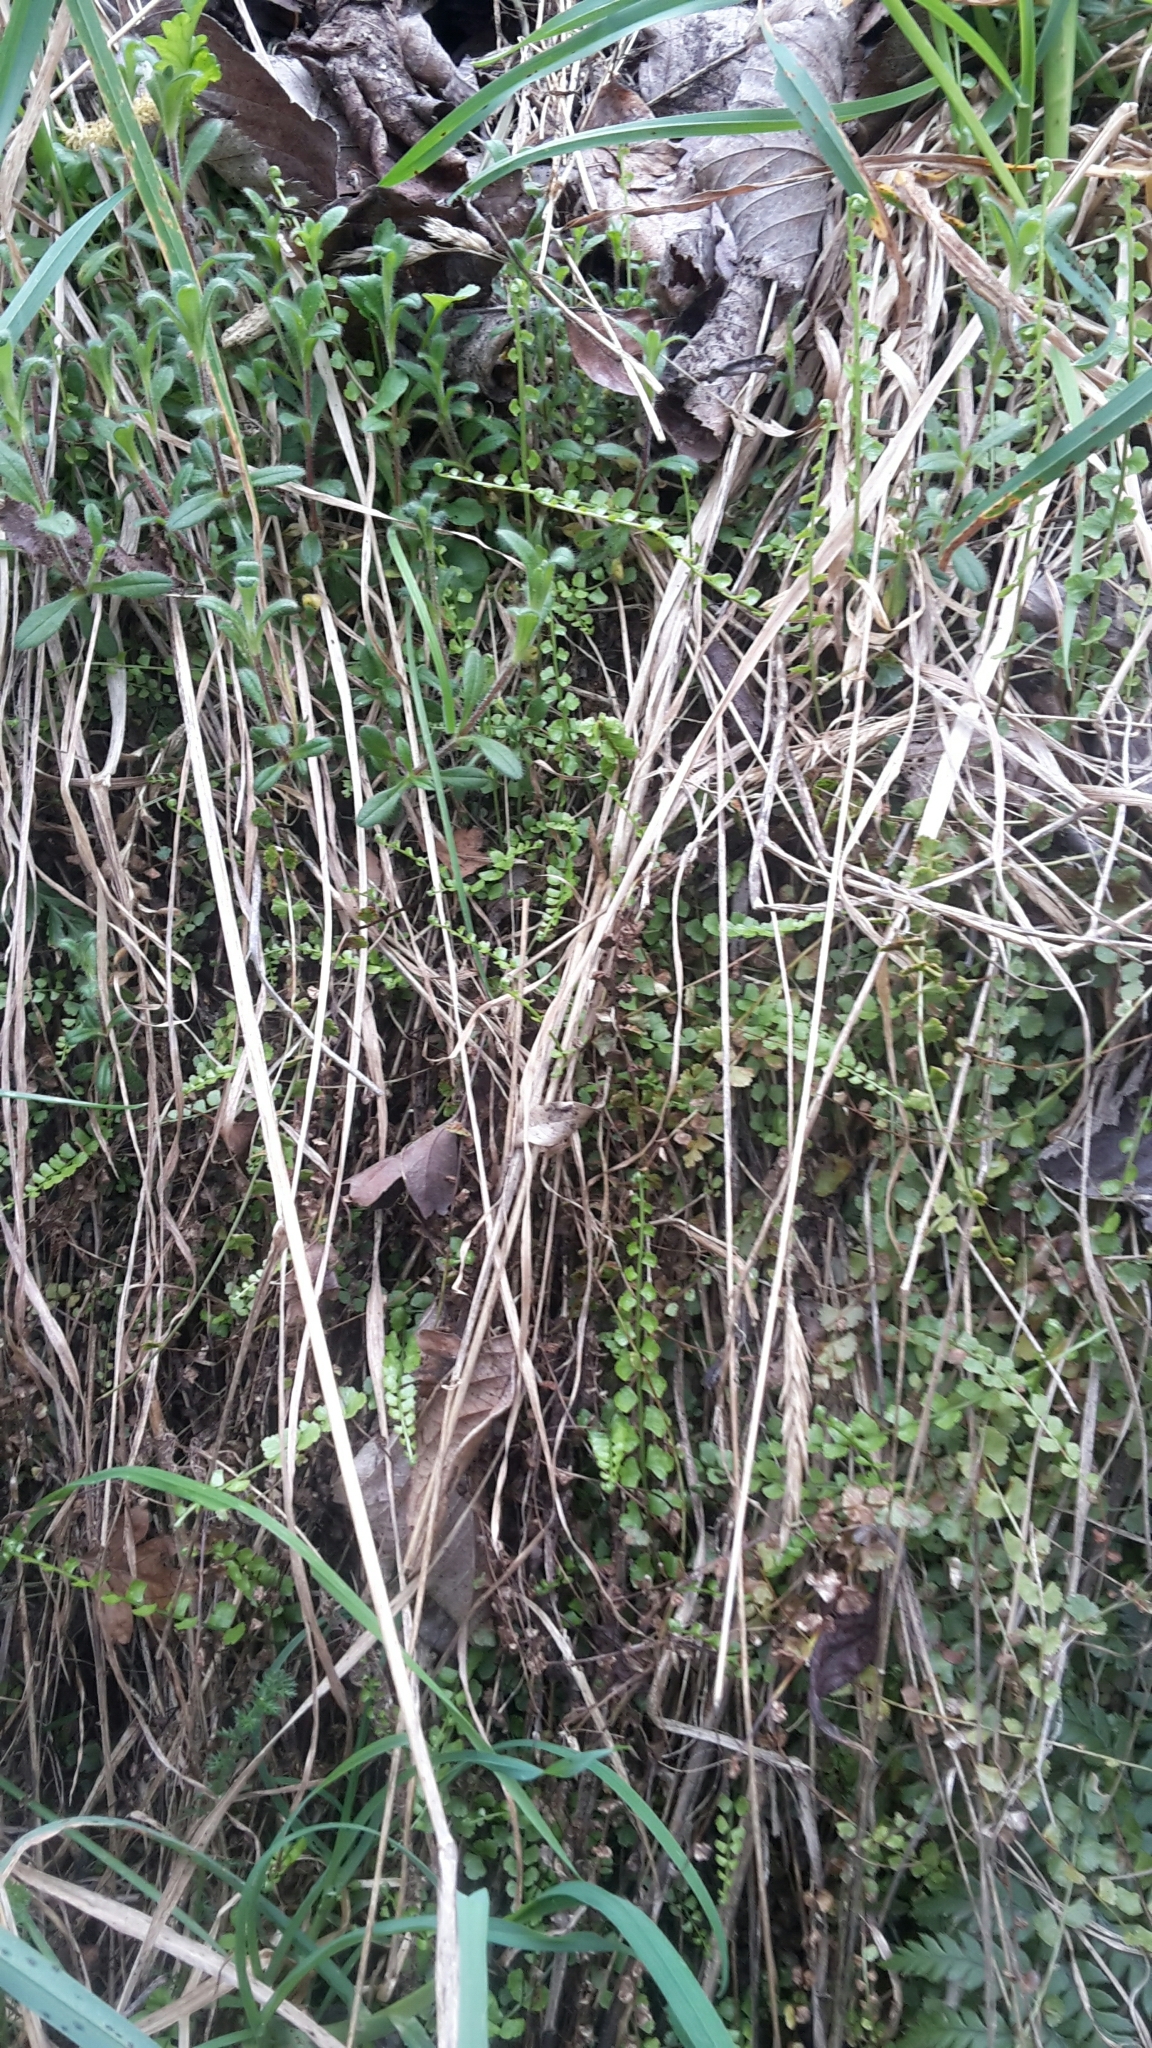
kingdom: Plantae
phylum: Tracheophyta
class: Polypodiopsida
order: Polypodiales
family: Aspleniaceae
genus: Asplenium
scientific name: Asplenium flabellifolium
